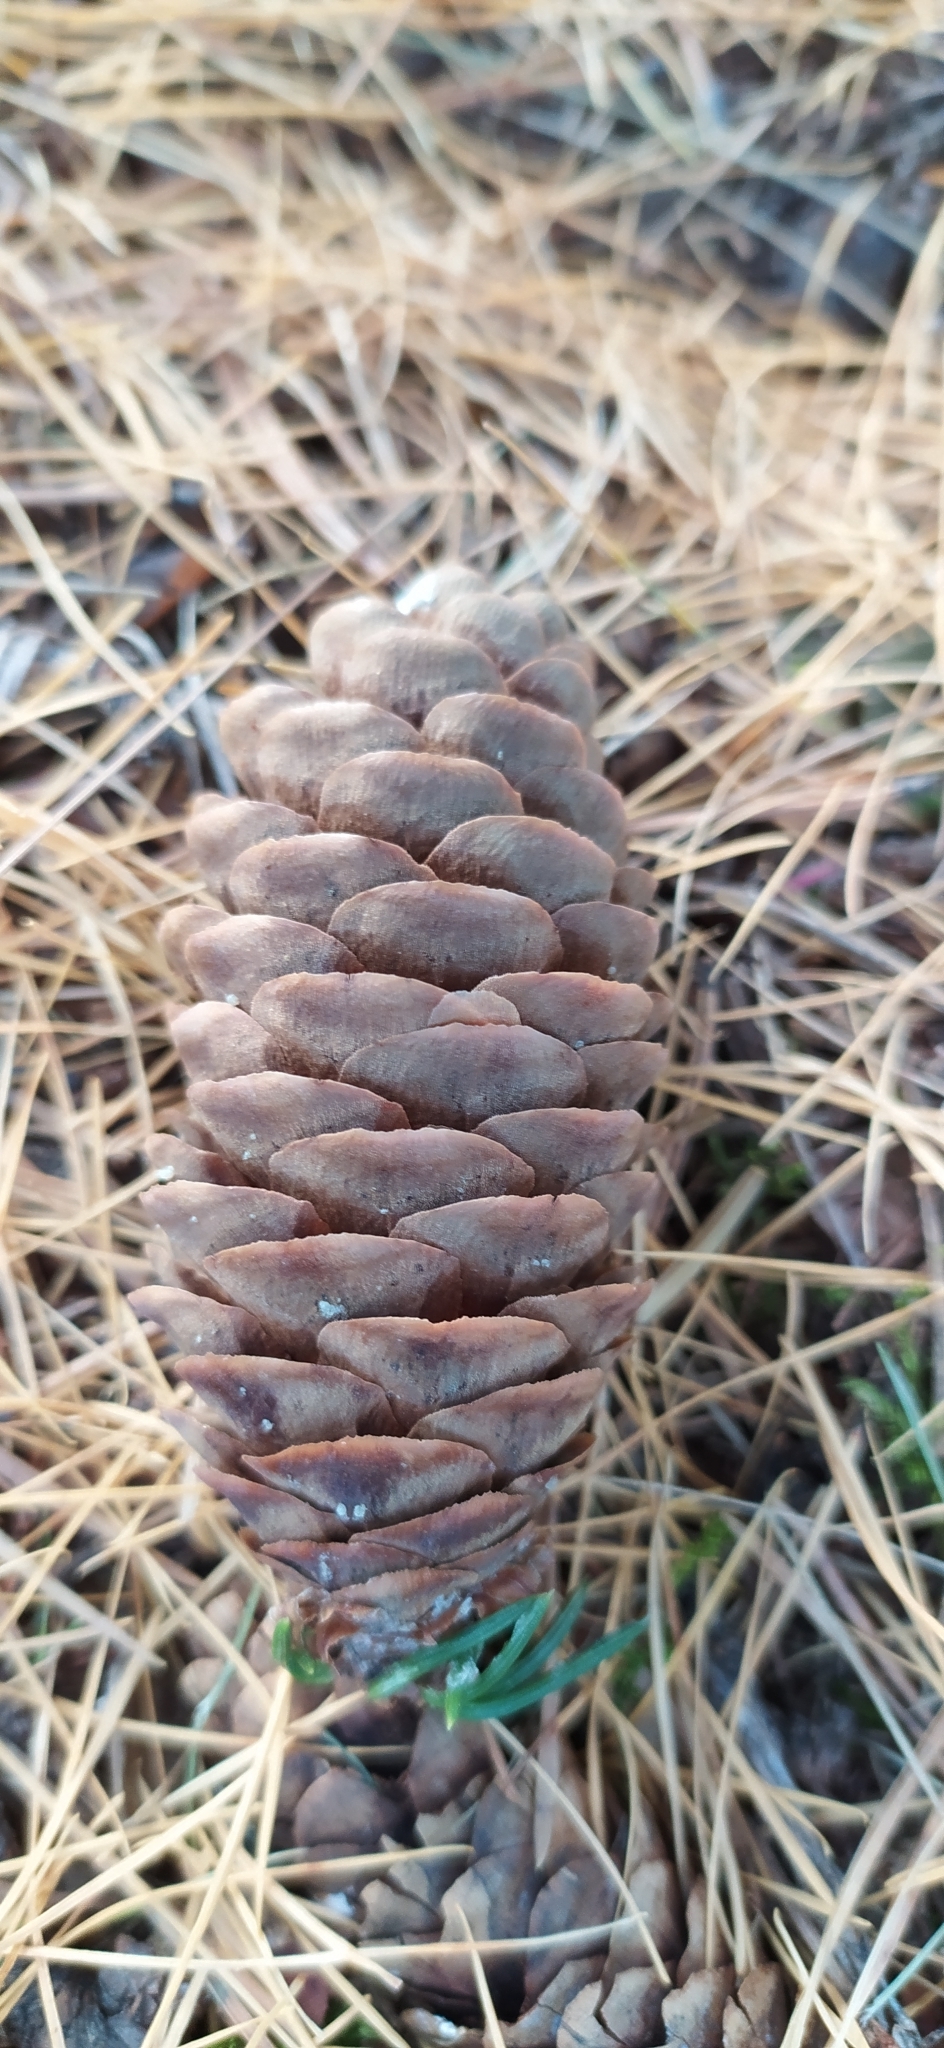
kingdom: Plantae
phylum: Tracheophyta
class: Pinopsida
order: Pinales
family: Pinaceae
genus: Picea
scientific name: Picea obovata
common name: Siberian spruce
